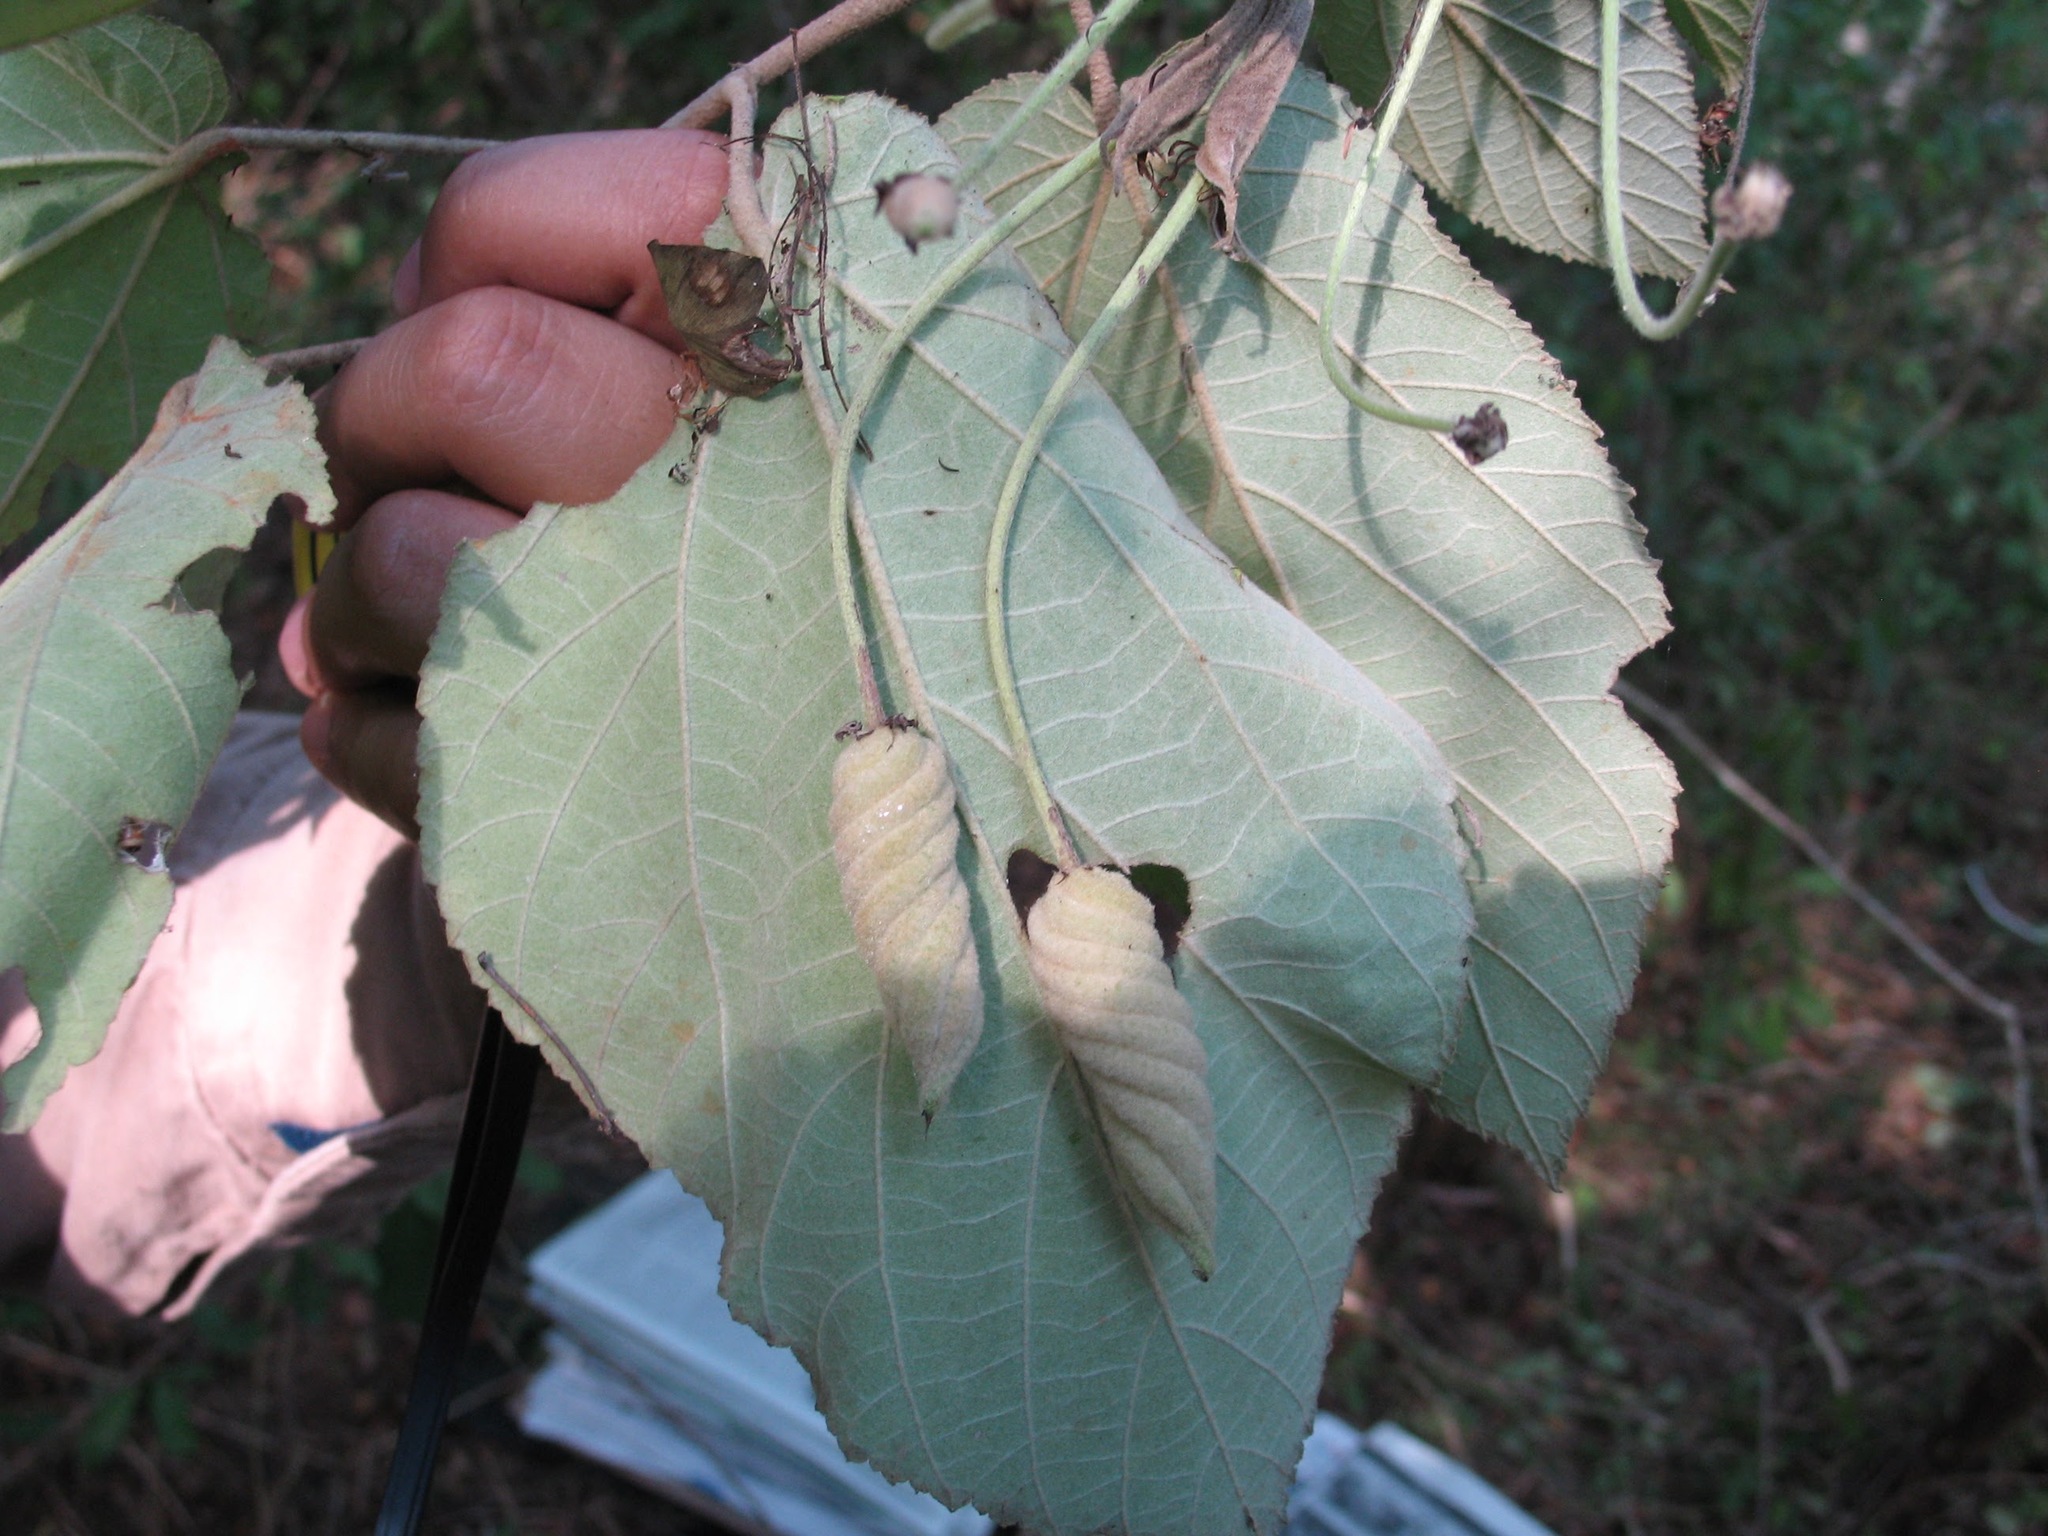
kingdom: Plantae
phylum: Tracheophyta
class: Magnoliopsida
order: Malvales
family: Malvaceae
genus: Helicteres
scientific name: Helicteres baruensis
